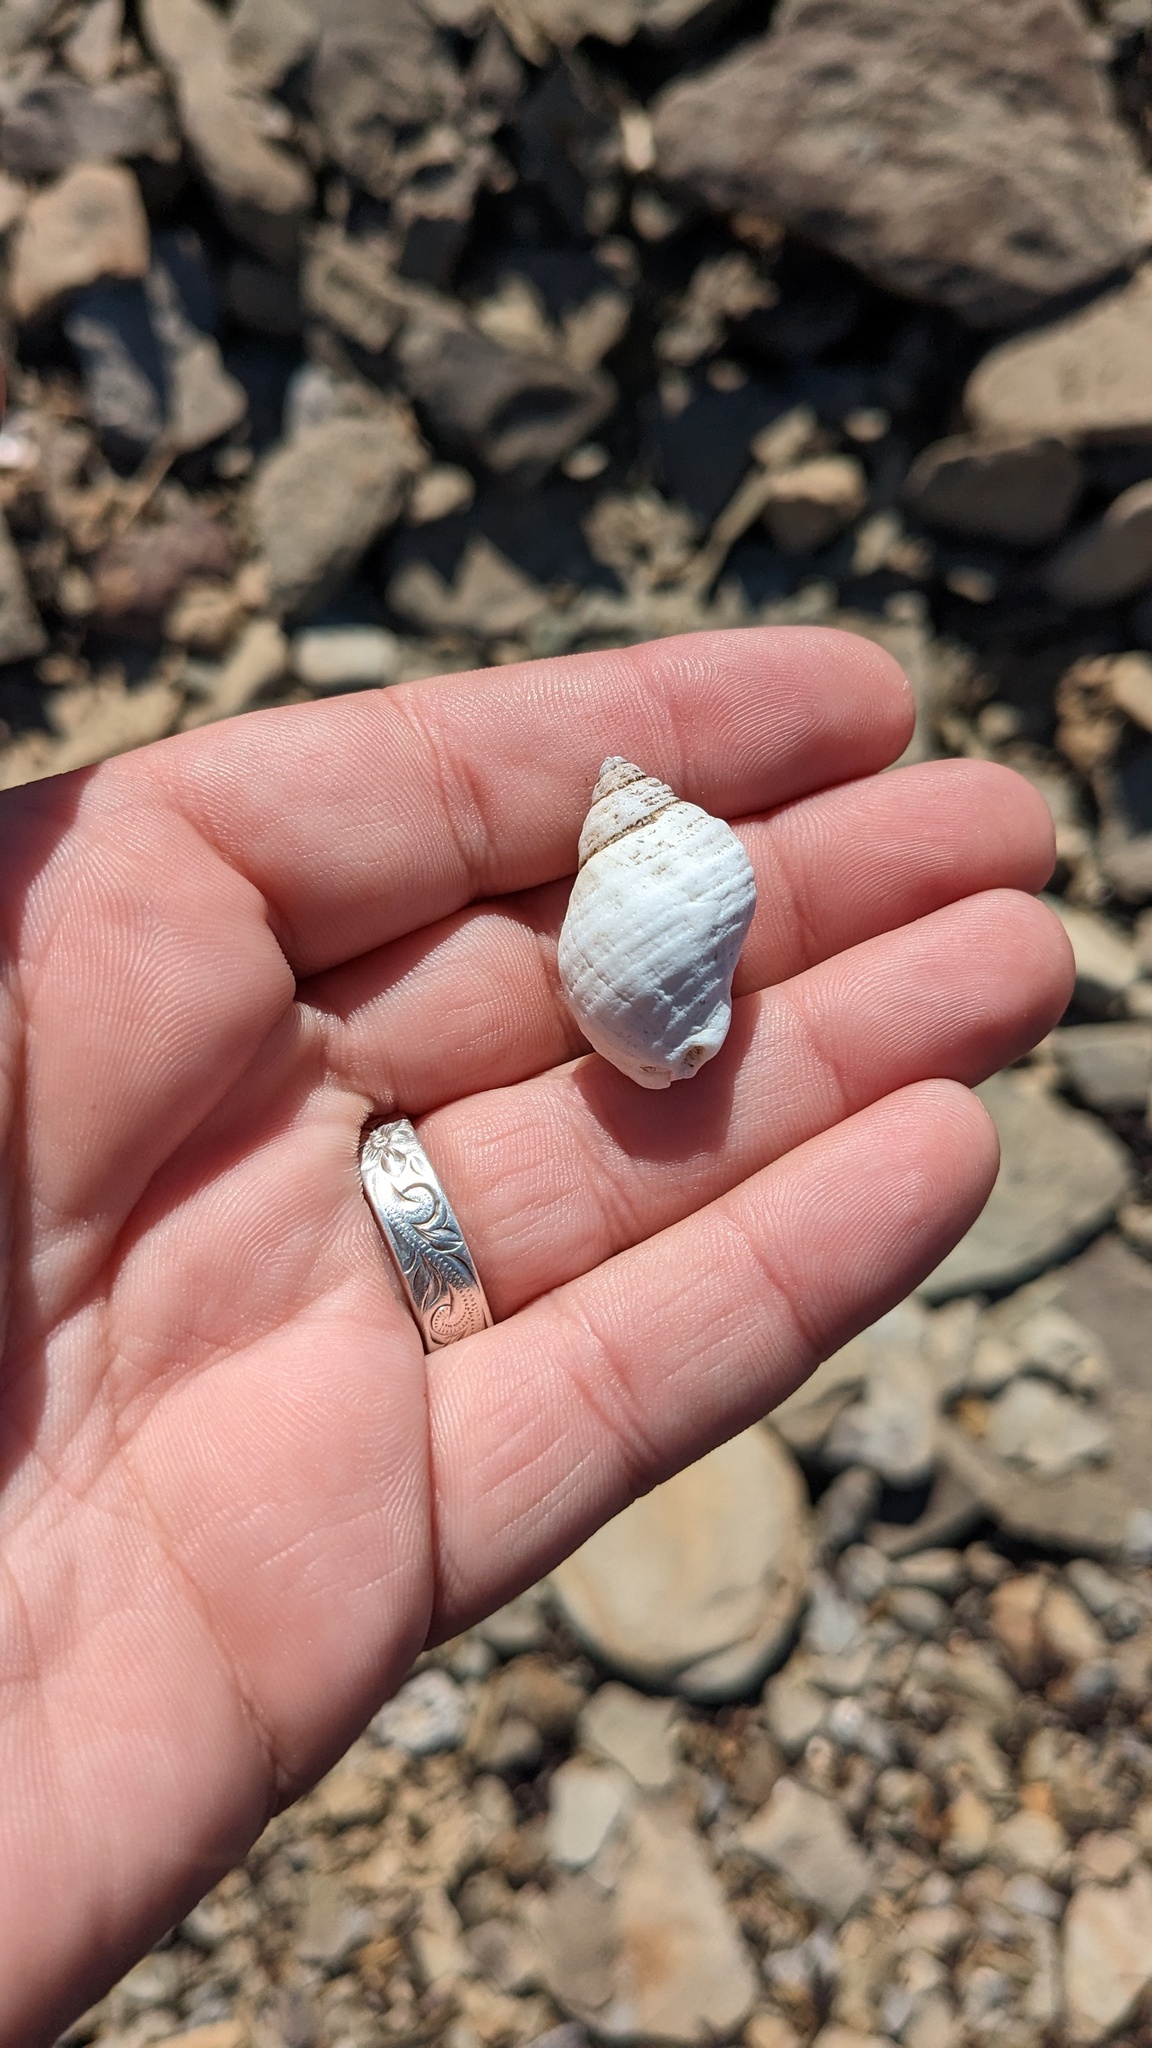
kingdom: Animalia
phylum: Mollusca
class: Gastropoda
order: Neogastropoda
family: Muricidae
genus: Nucella
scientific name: Nucella lapillus
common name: Dog whelk
